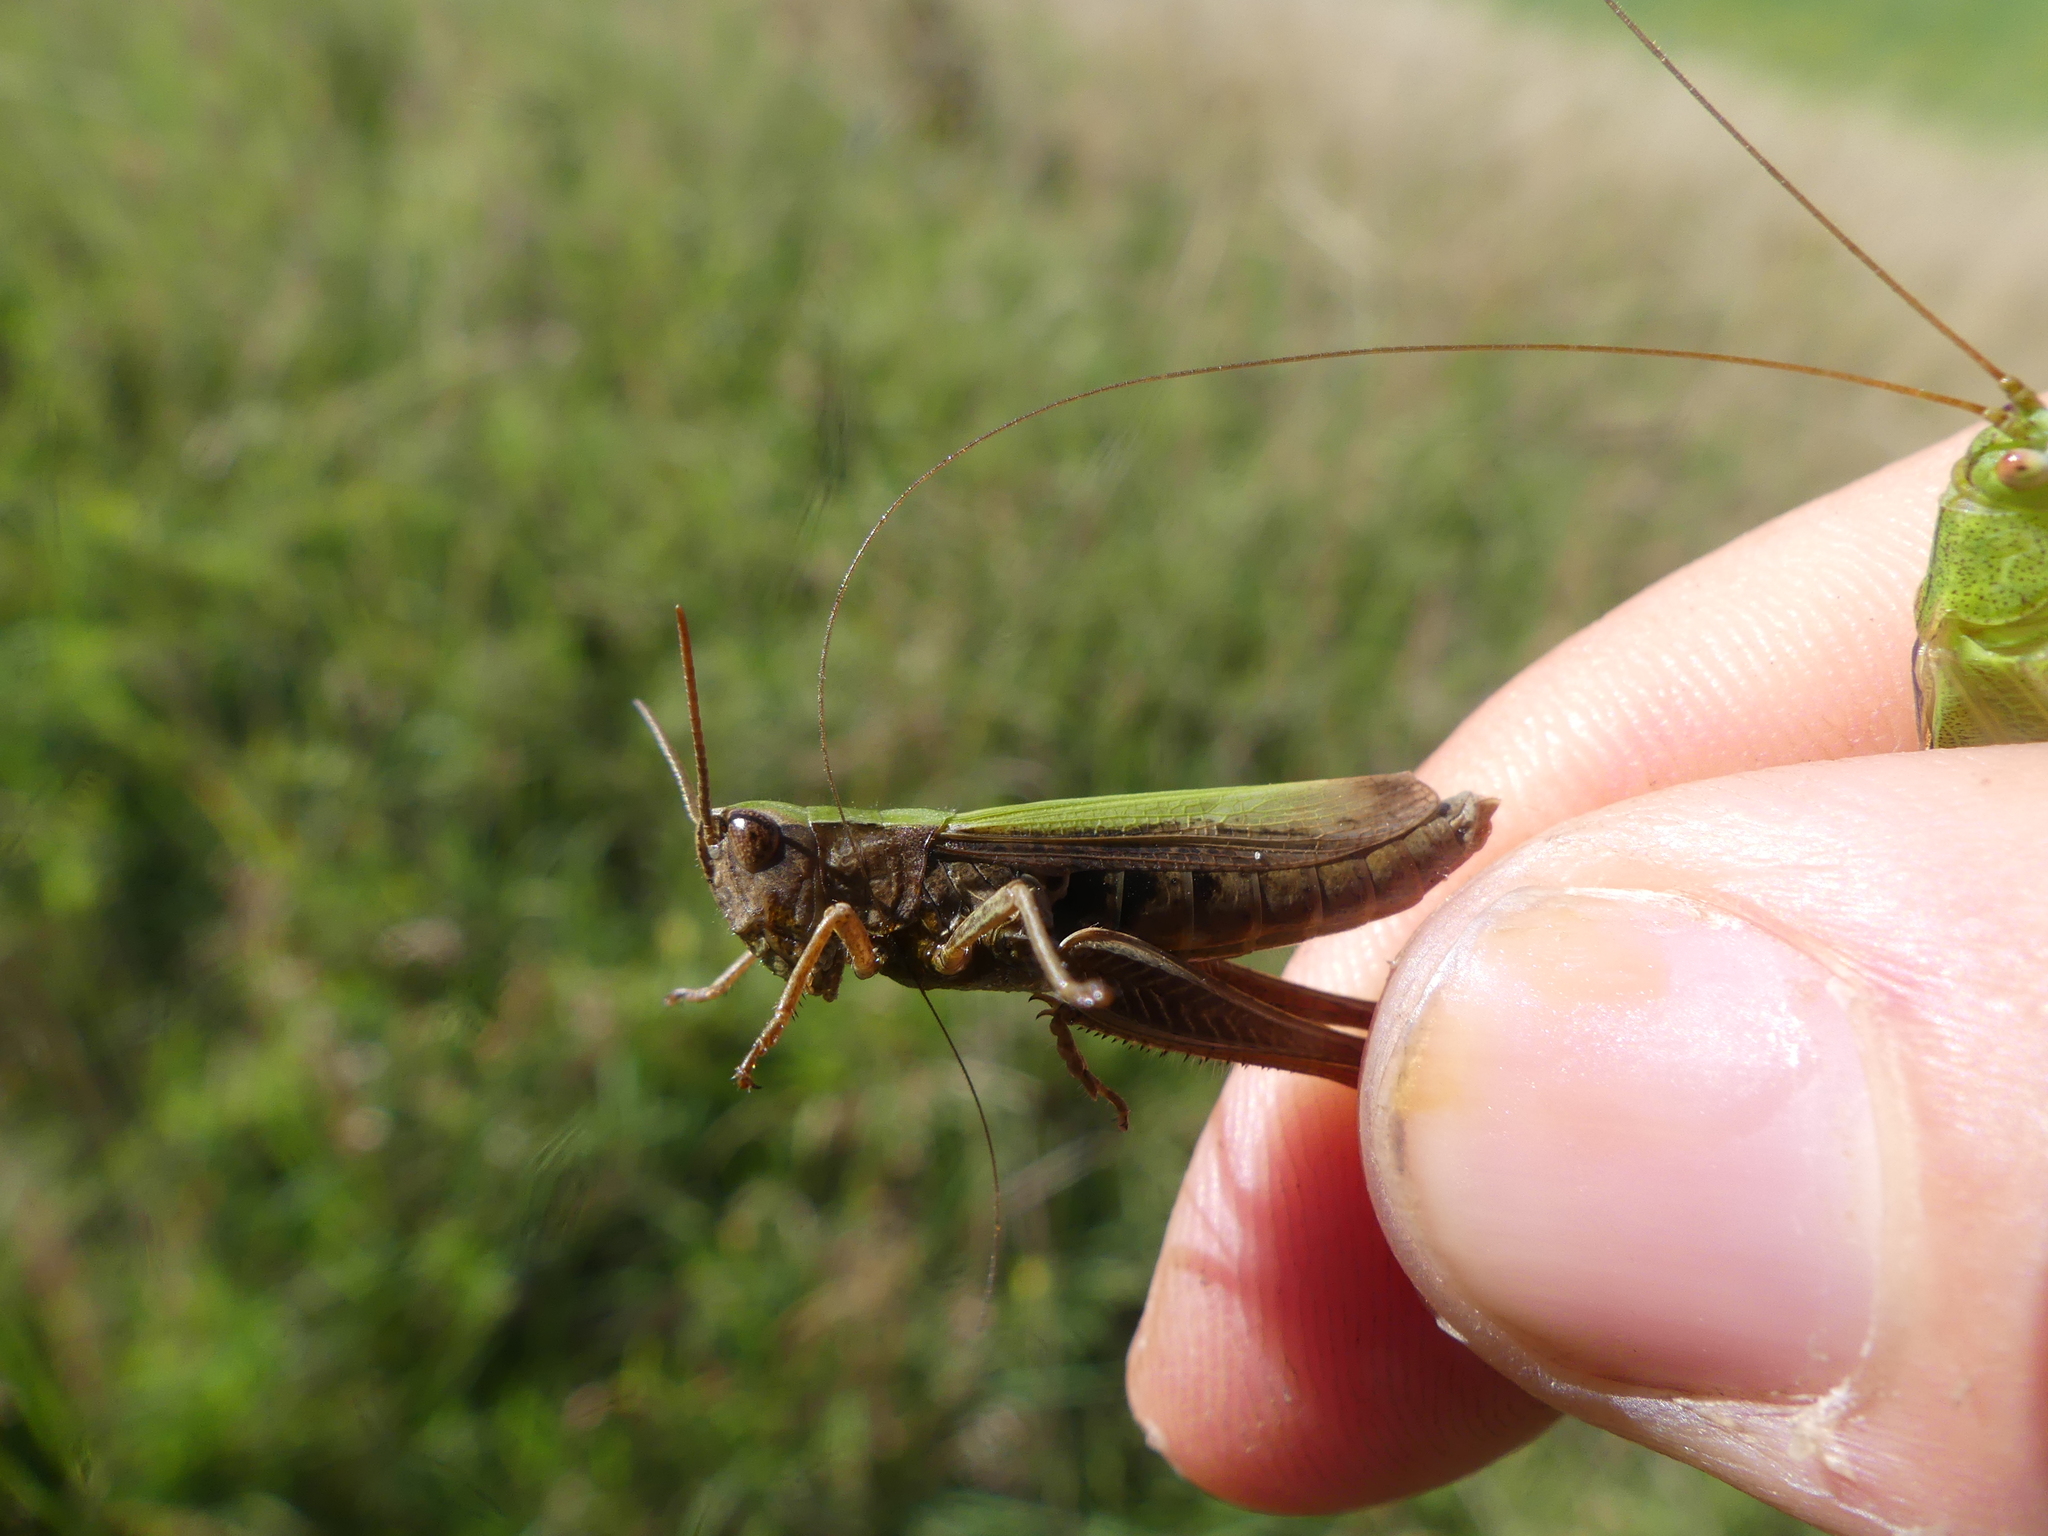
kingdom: Animalia
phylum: Arthropoda
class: Insecta
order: Orthoptera
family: Acrididae
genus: Chorthippus
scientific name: Chorthippus dorsatus
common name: Steppe grasshopper
